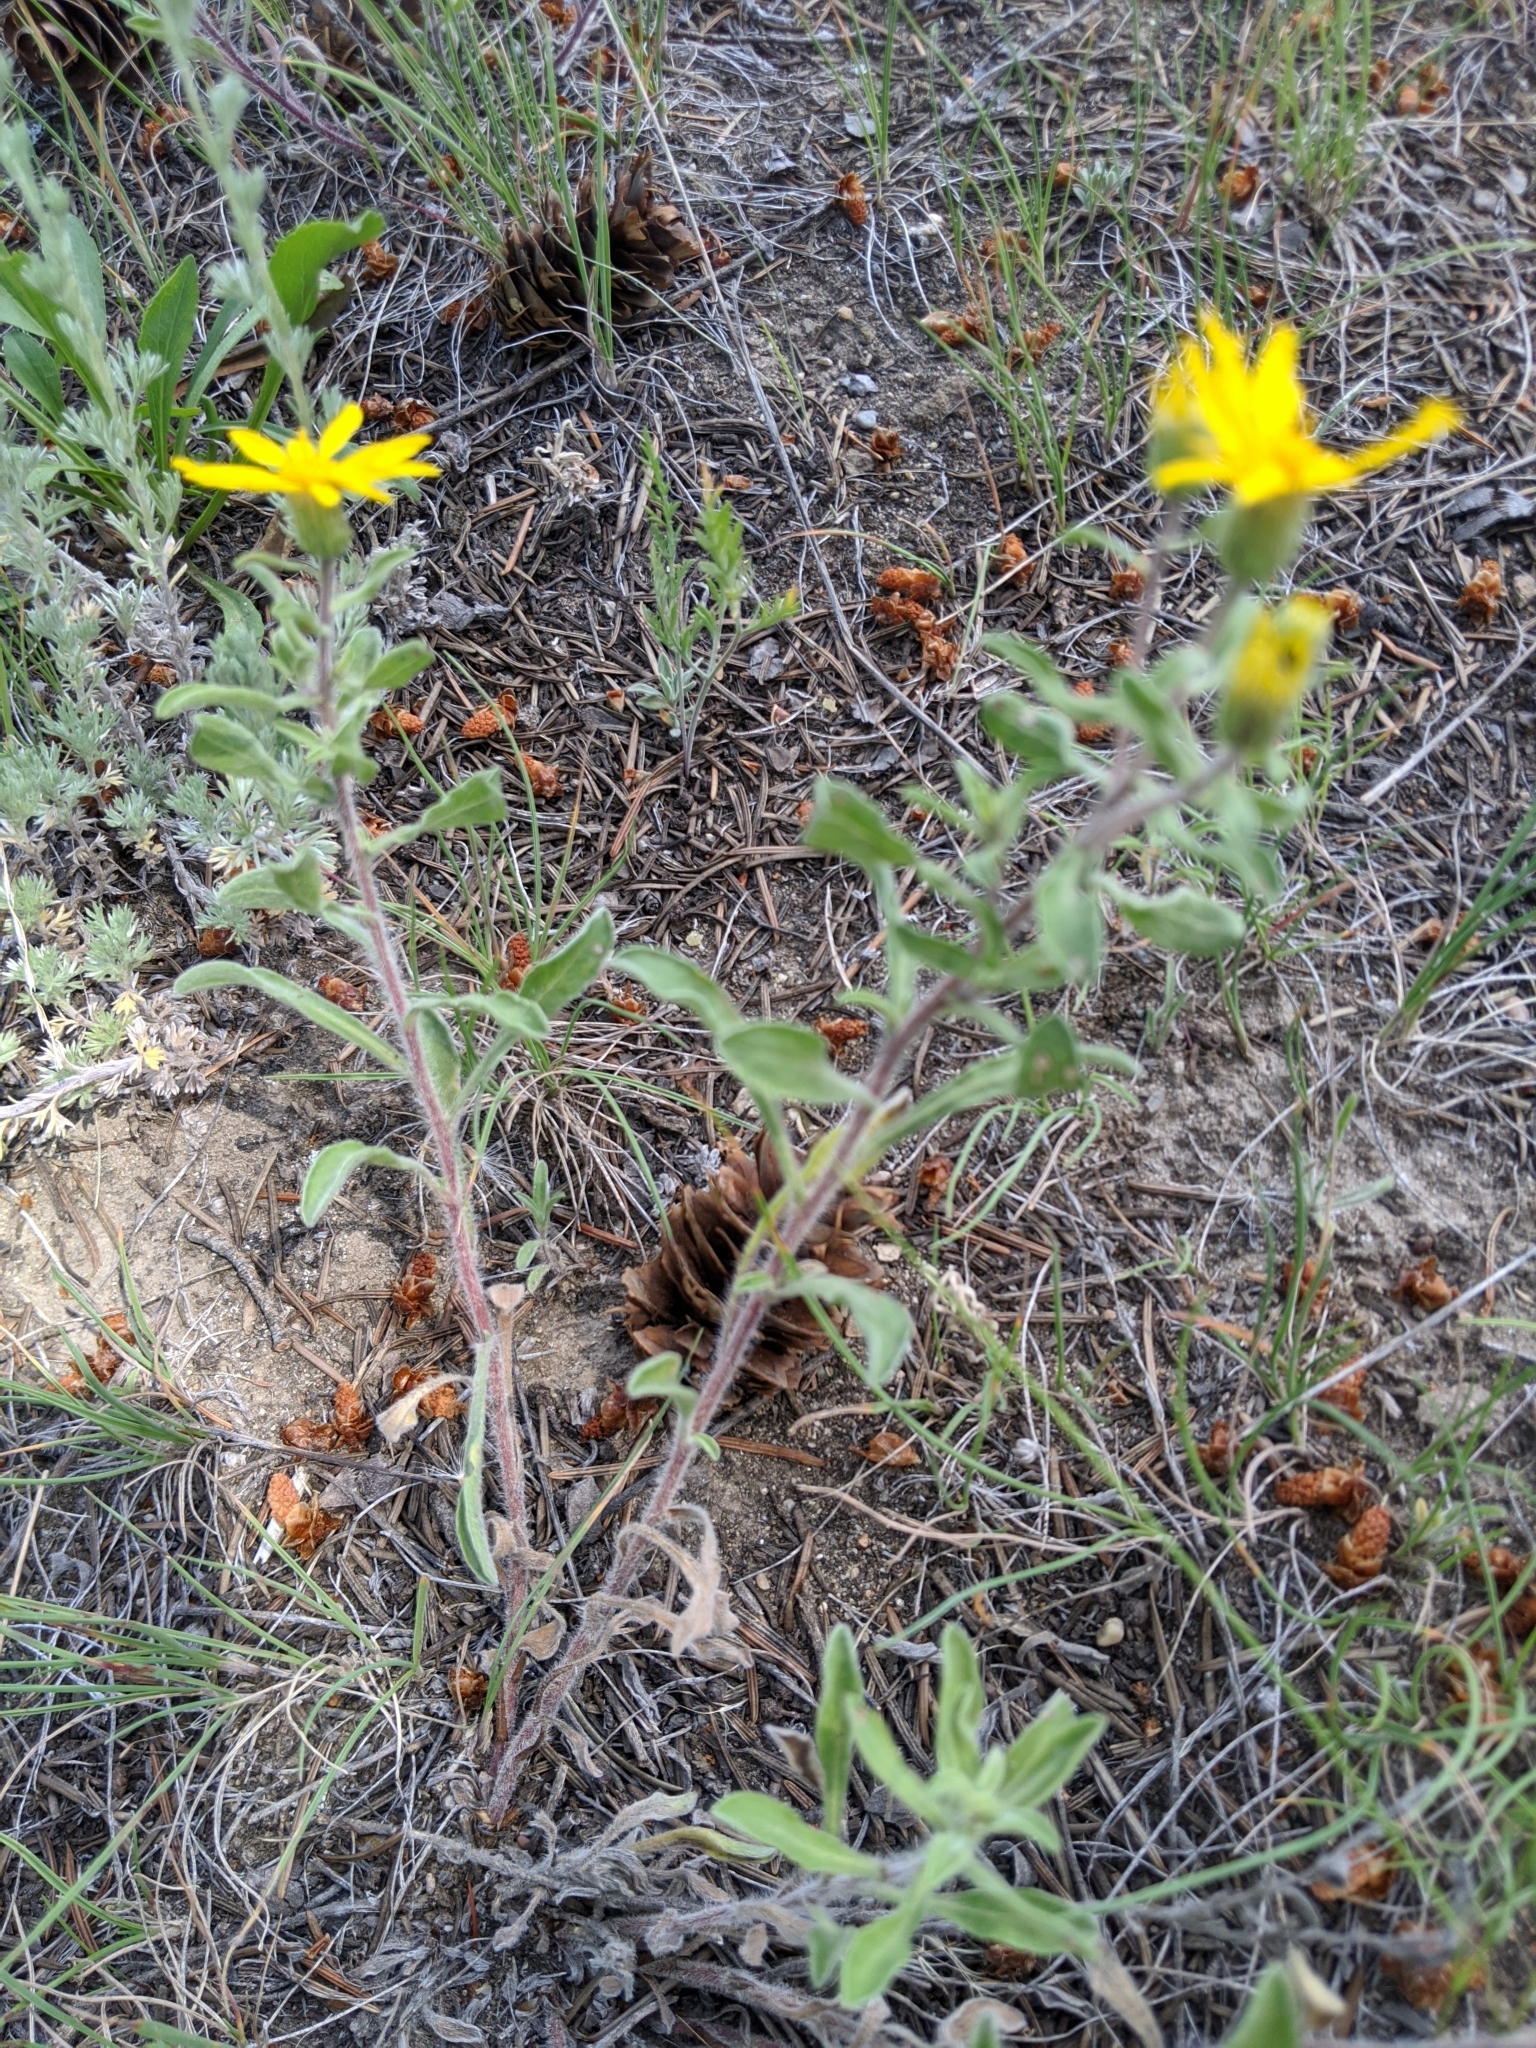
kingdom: Plantae
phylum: Tracheophyta
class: Magnoliopsida
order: Asterales
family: Asteraceae
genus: Heterotheca
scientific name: Heterotheca villosa
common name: Hairy false goldenaster
